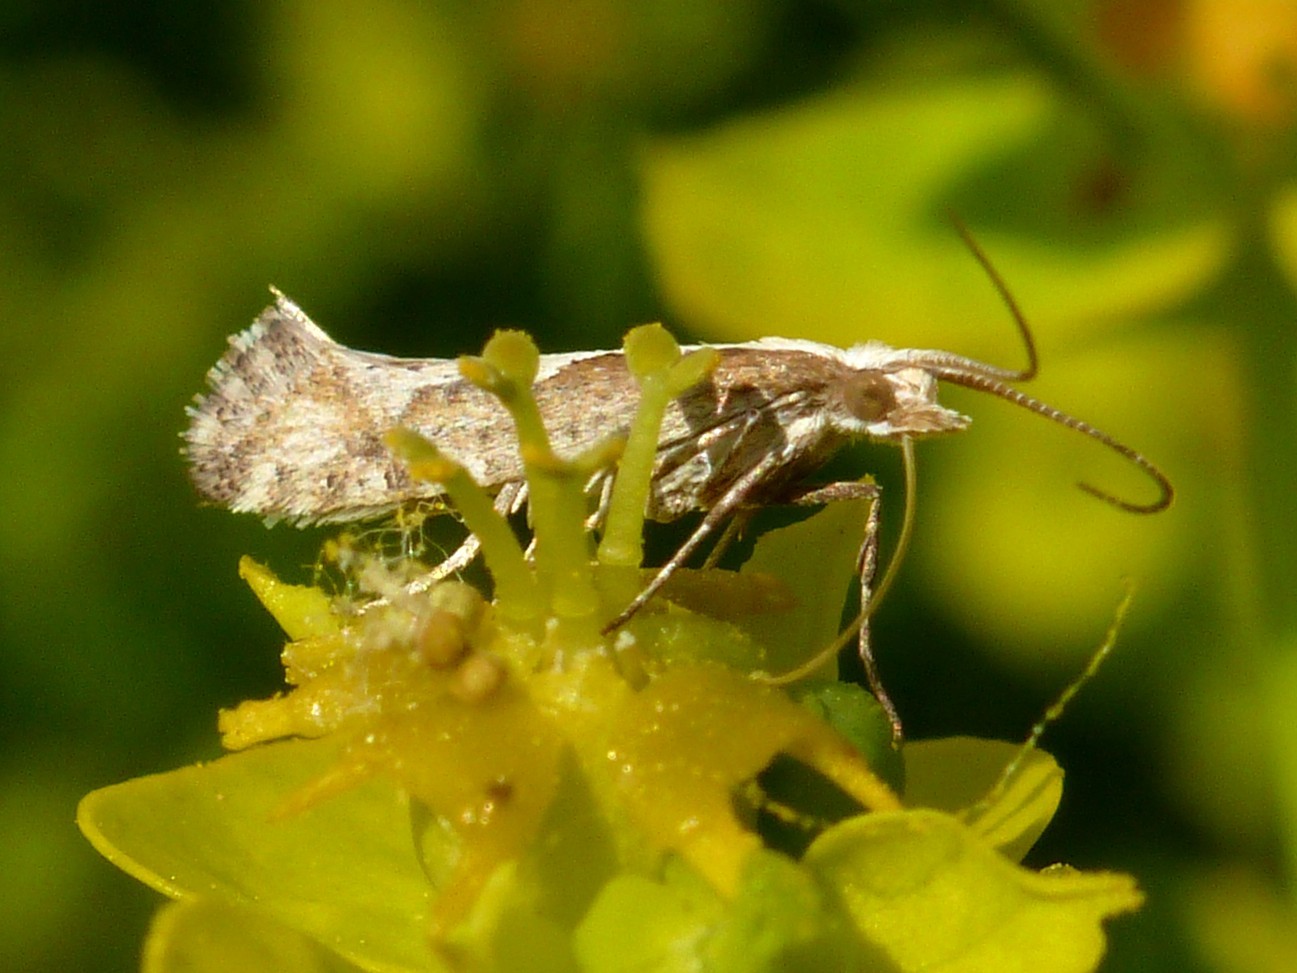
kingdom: Animalia
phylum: Arthropoda
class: Insecta
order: Lepidoptera
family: Plutellidae
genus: Plutella
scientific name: Plutella xylostella
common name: Diamond-back moth
